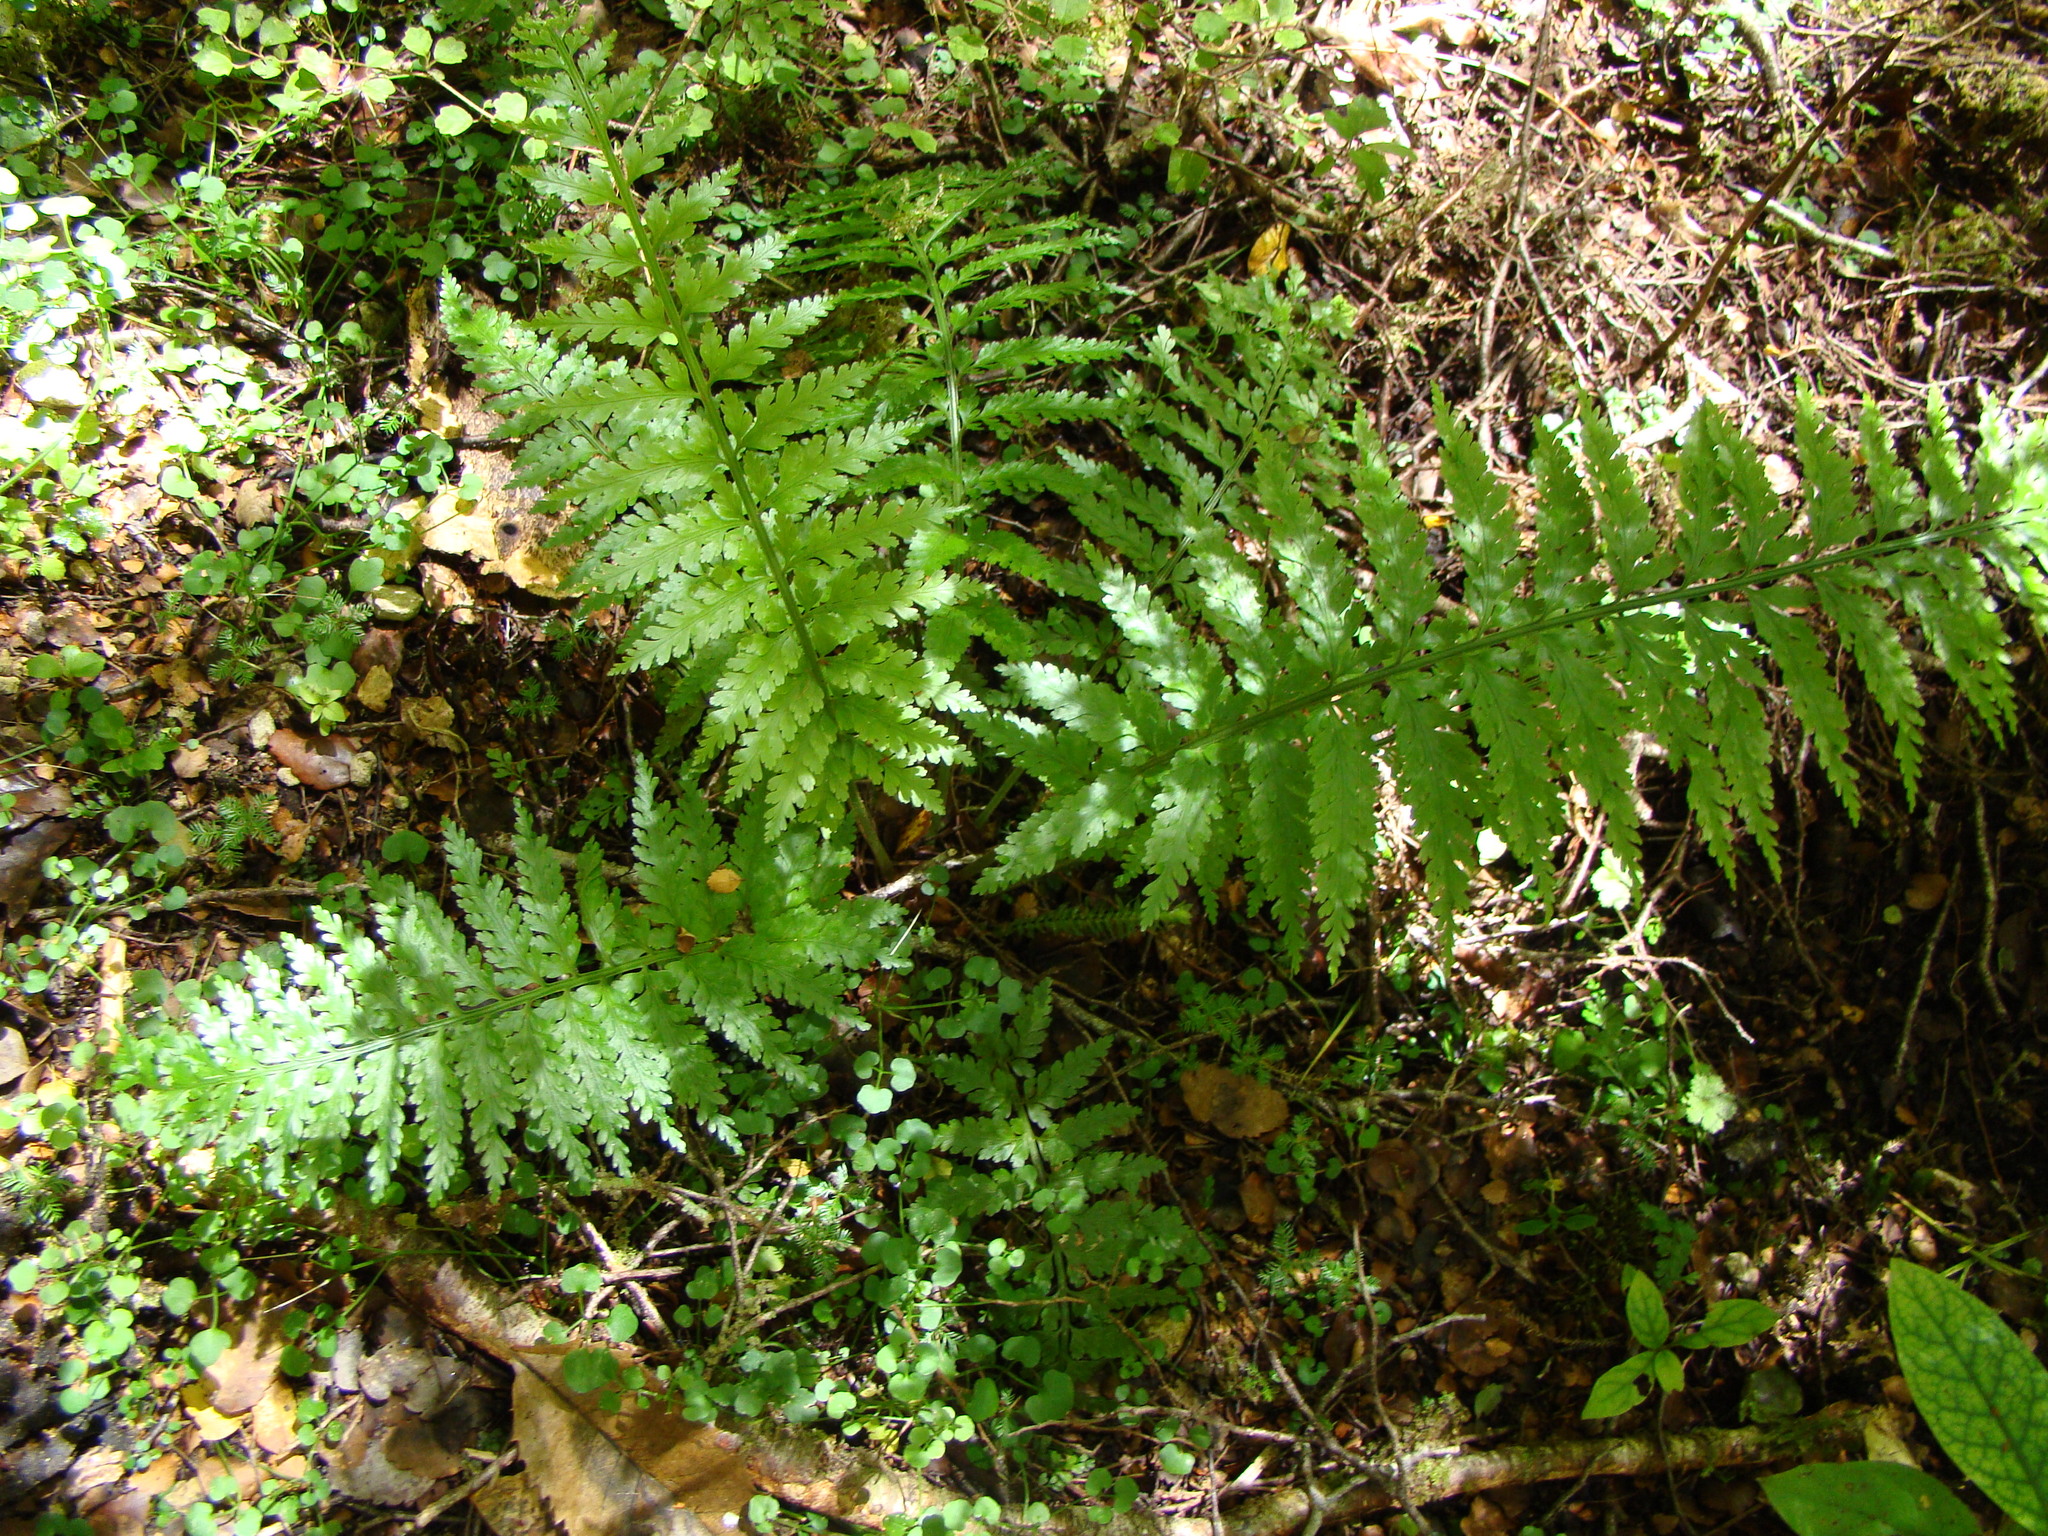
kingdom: Plantae
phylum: Tracheophyta
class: Polypodiopsida
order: Polypodiales
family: Aspleniaceae
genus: Asplenium
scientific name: Asplenium bulbiferum
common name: Mother fern
